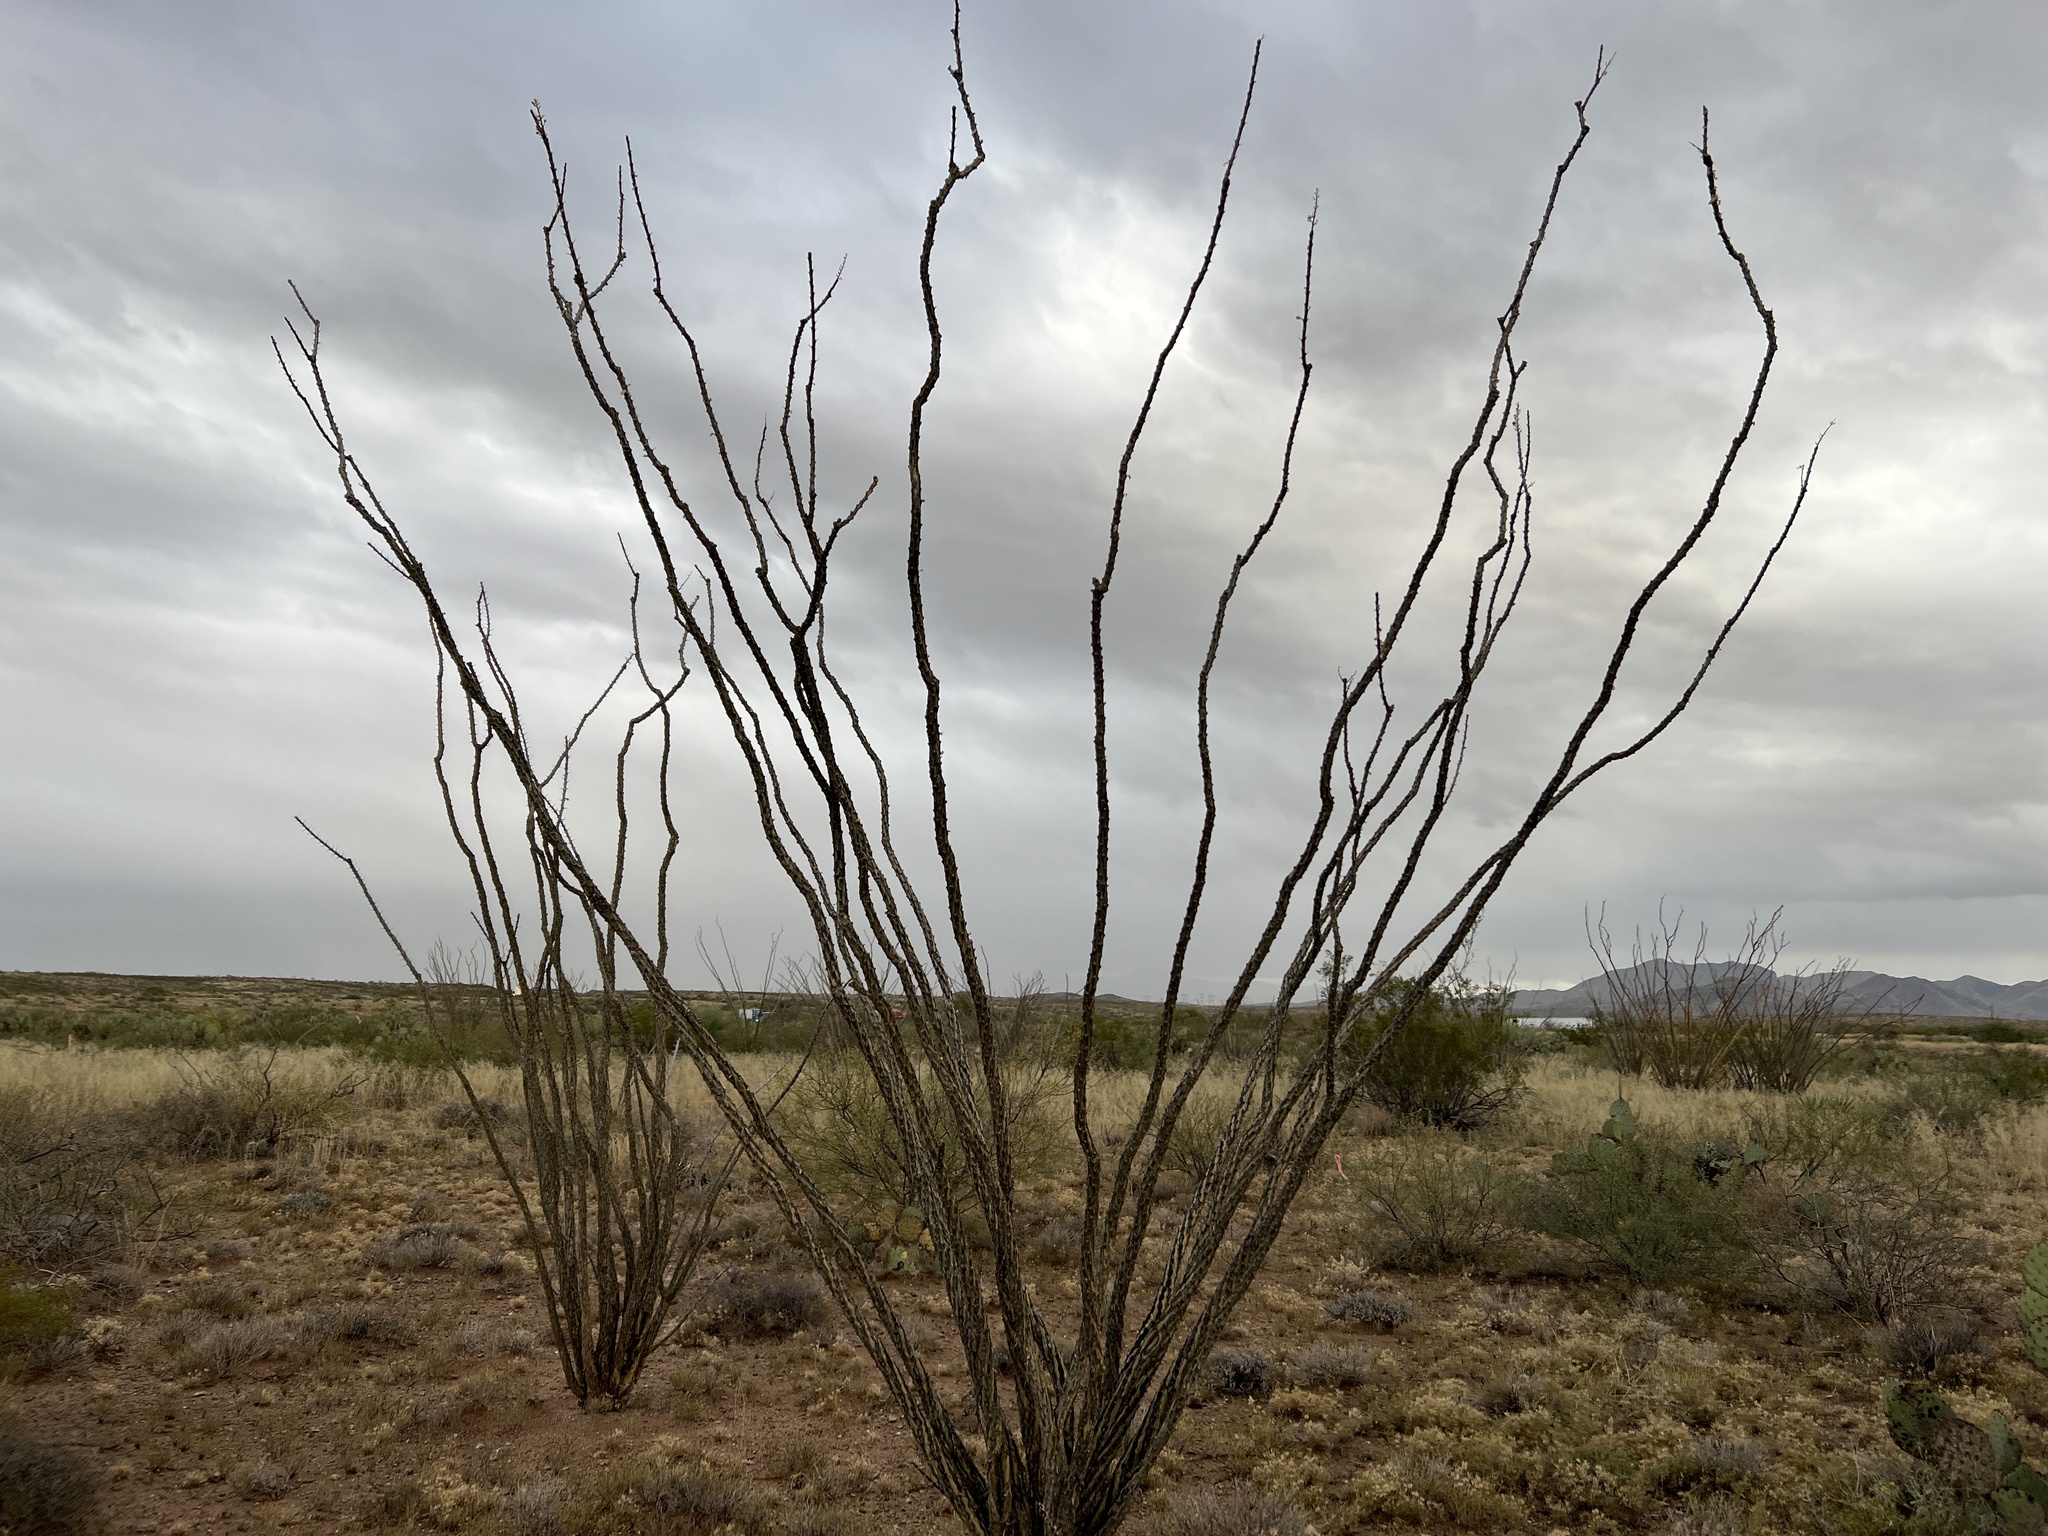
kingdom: Plantae
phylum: Tracheophyta
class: Magnoliopsida
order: Ericales
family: Fouquieriaceae
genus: Fouquieria
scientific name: Fouquieria splendens
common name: Vine-cactus
